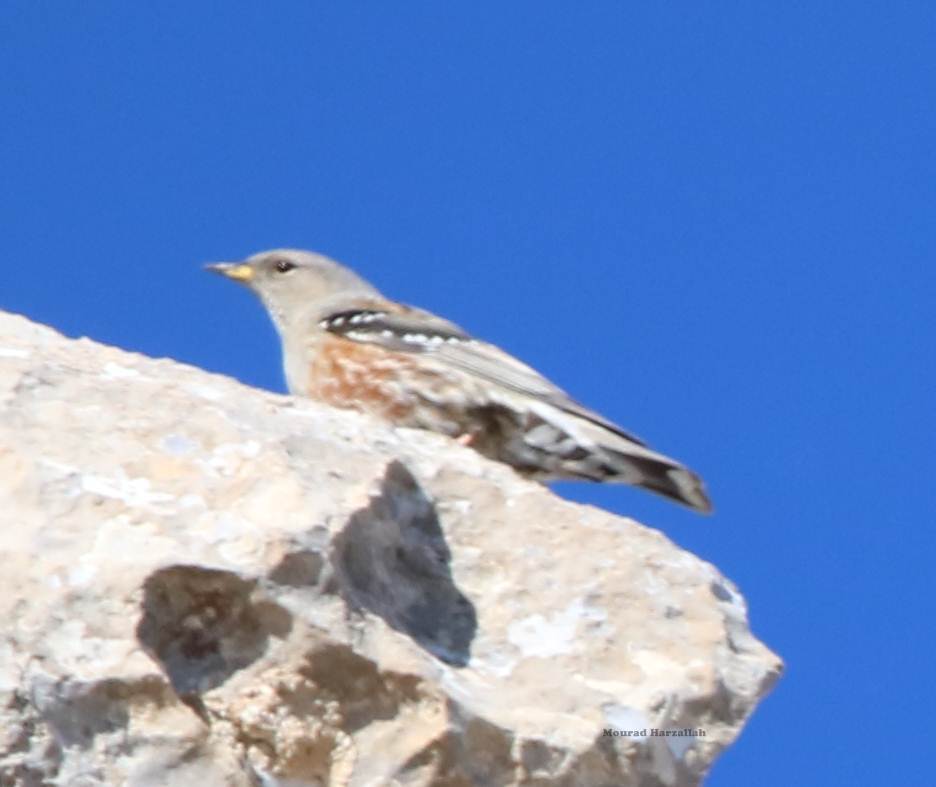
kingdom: Animalia
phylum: Chordata
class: Aves
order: Passeriformes
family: Prunellidae
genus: Prunella
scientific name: Prunella collaris
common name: Alpine accentor
